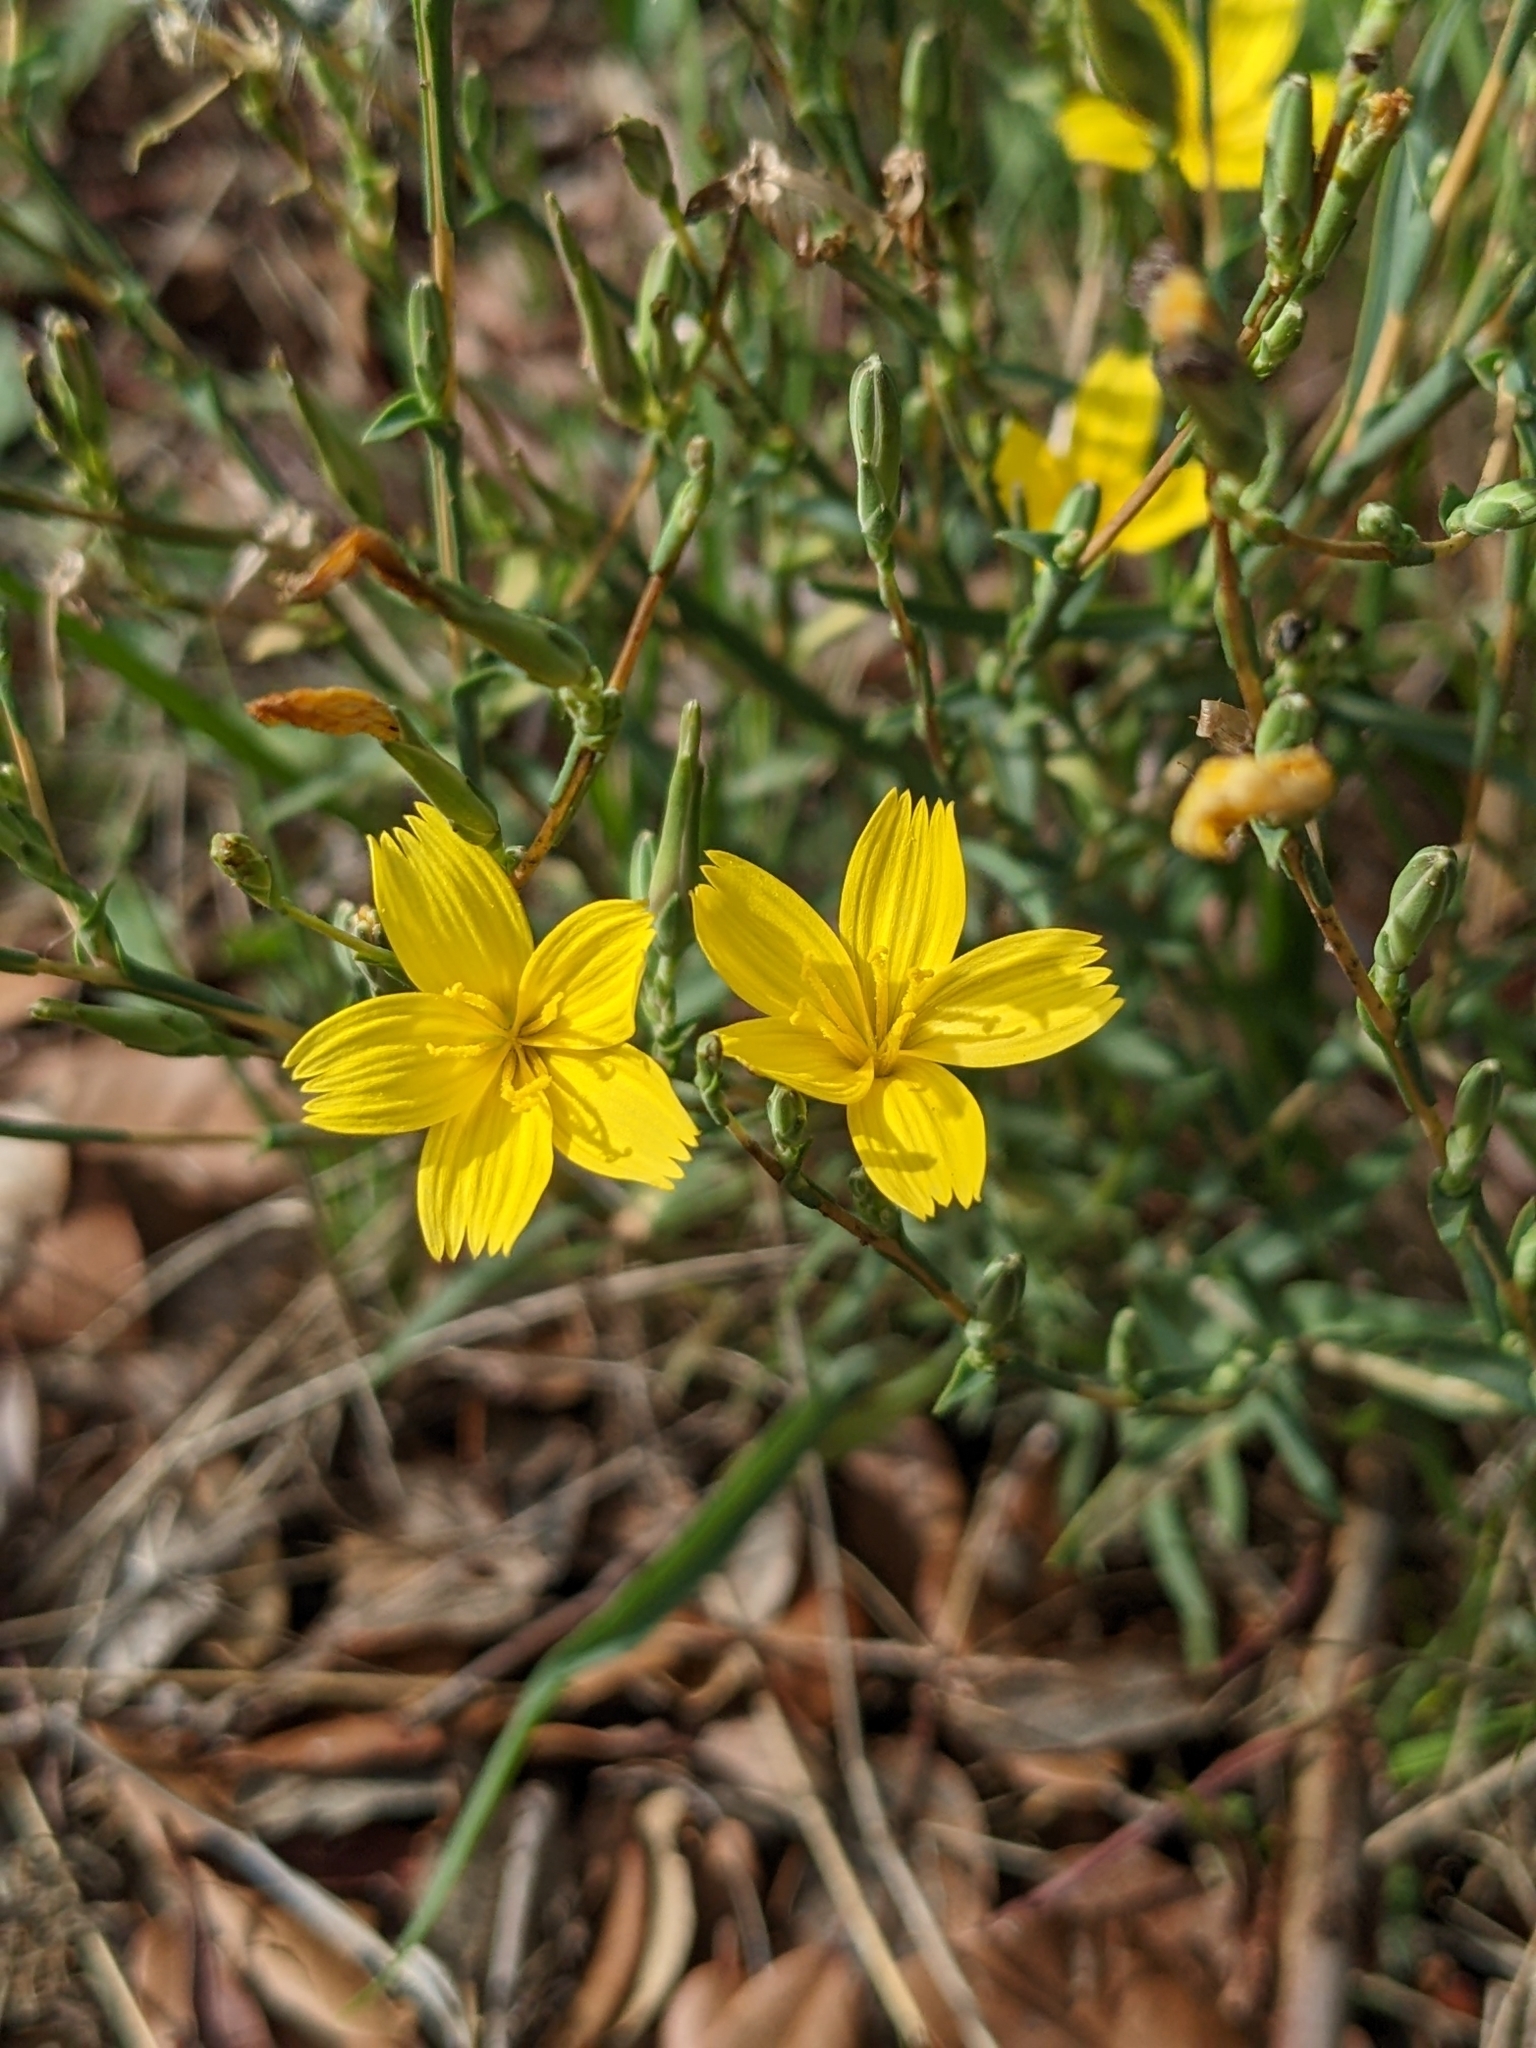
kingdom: Plantae
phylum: Tracheophyta
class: Magnoliopsida
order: Asterales
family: Asteraceae
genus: Lactuca
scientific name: Lactuca viminea
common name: Pliant lettuce
